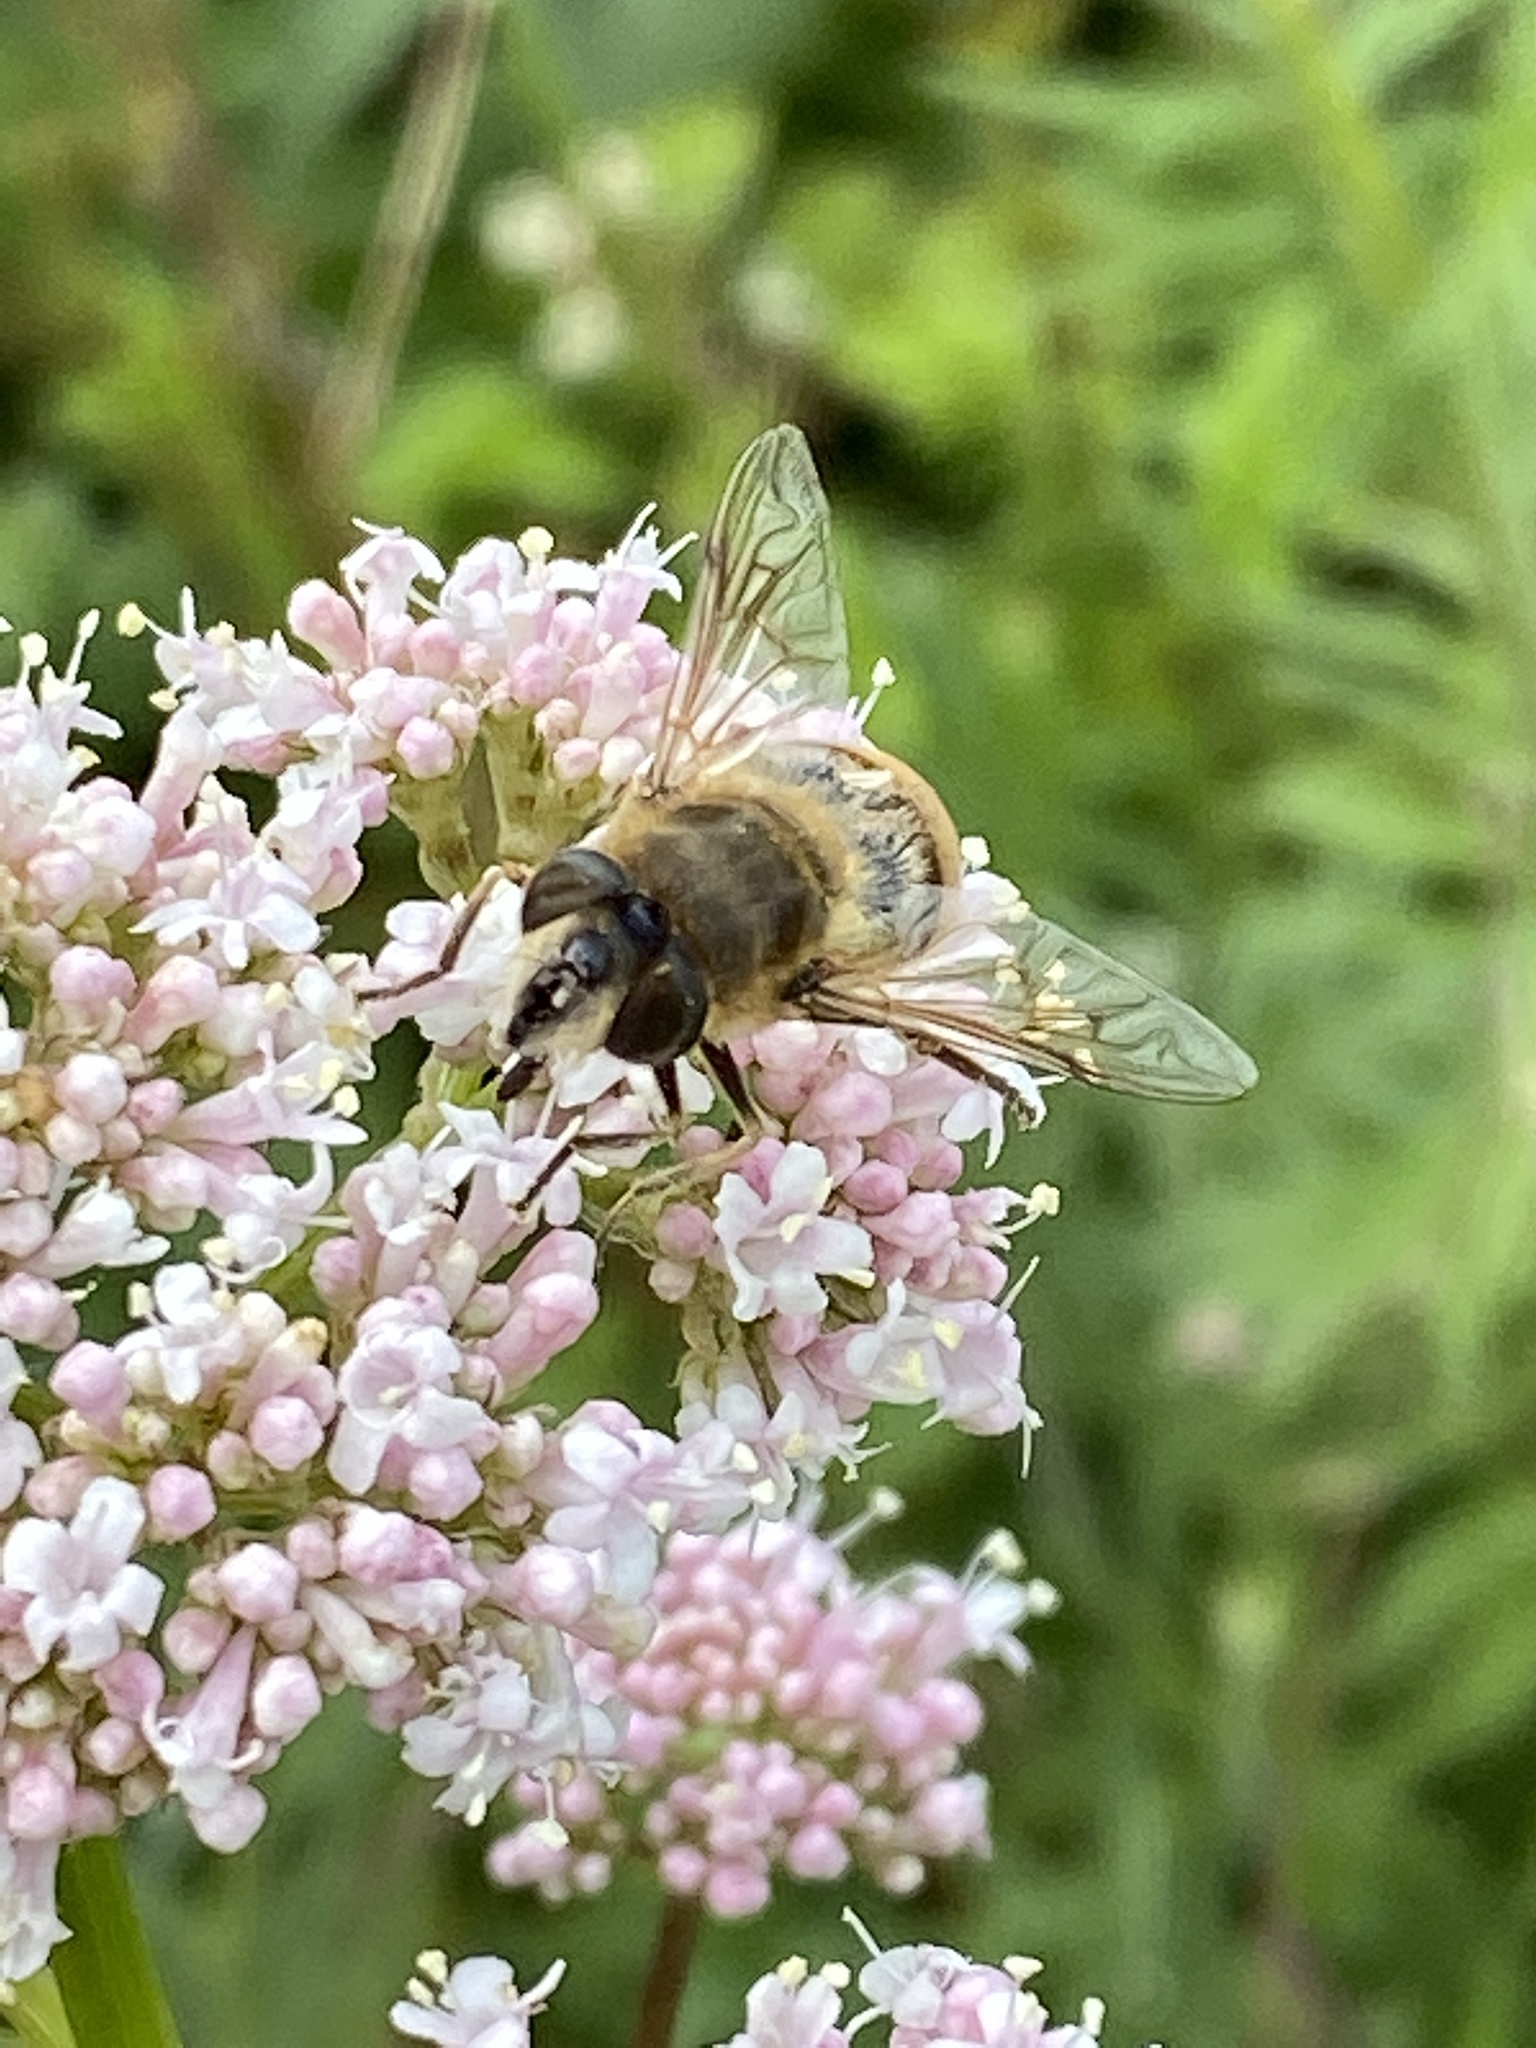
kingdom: Animalia
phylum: Arthropoda
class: Insecta
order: Diptera
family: Syrphidae
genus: Eristalis
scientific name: Eristalis tenax
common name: Drone fly
